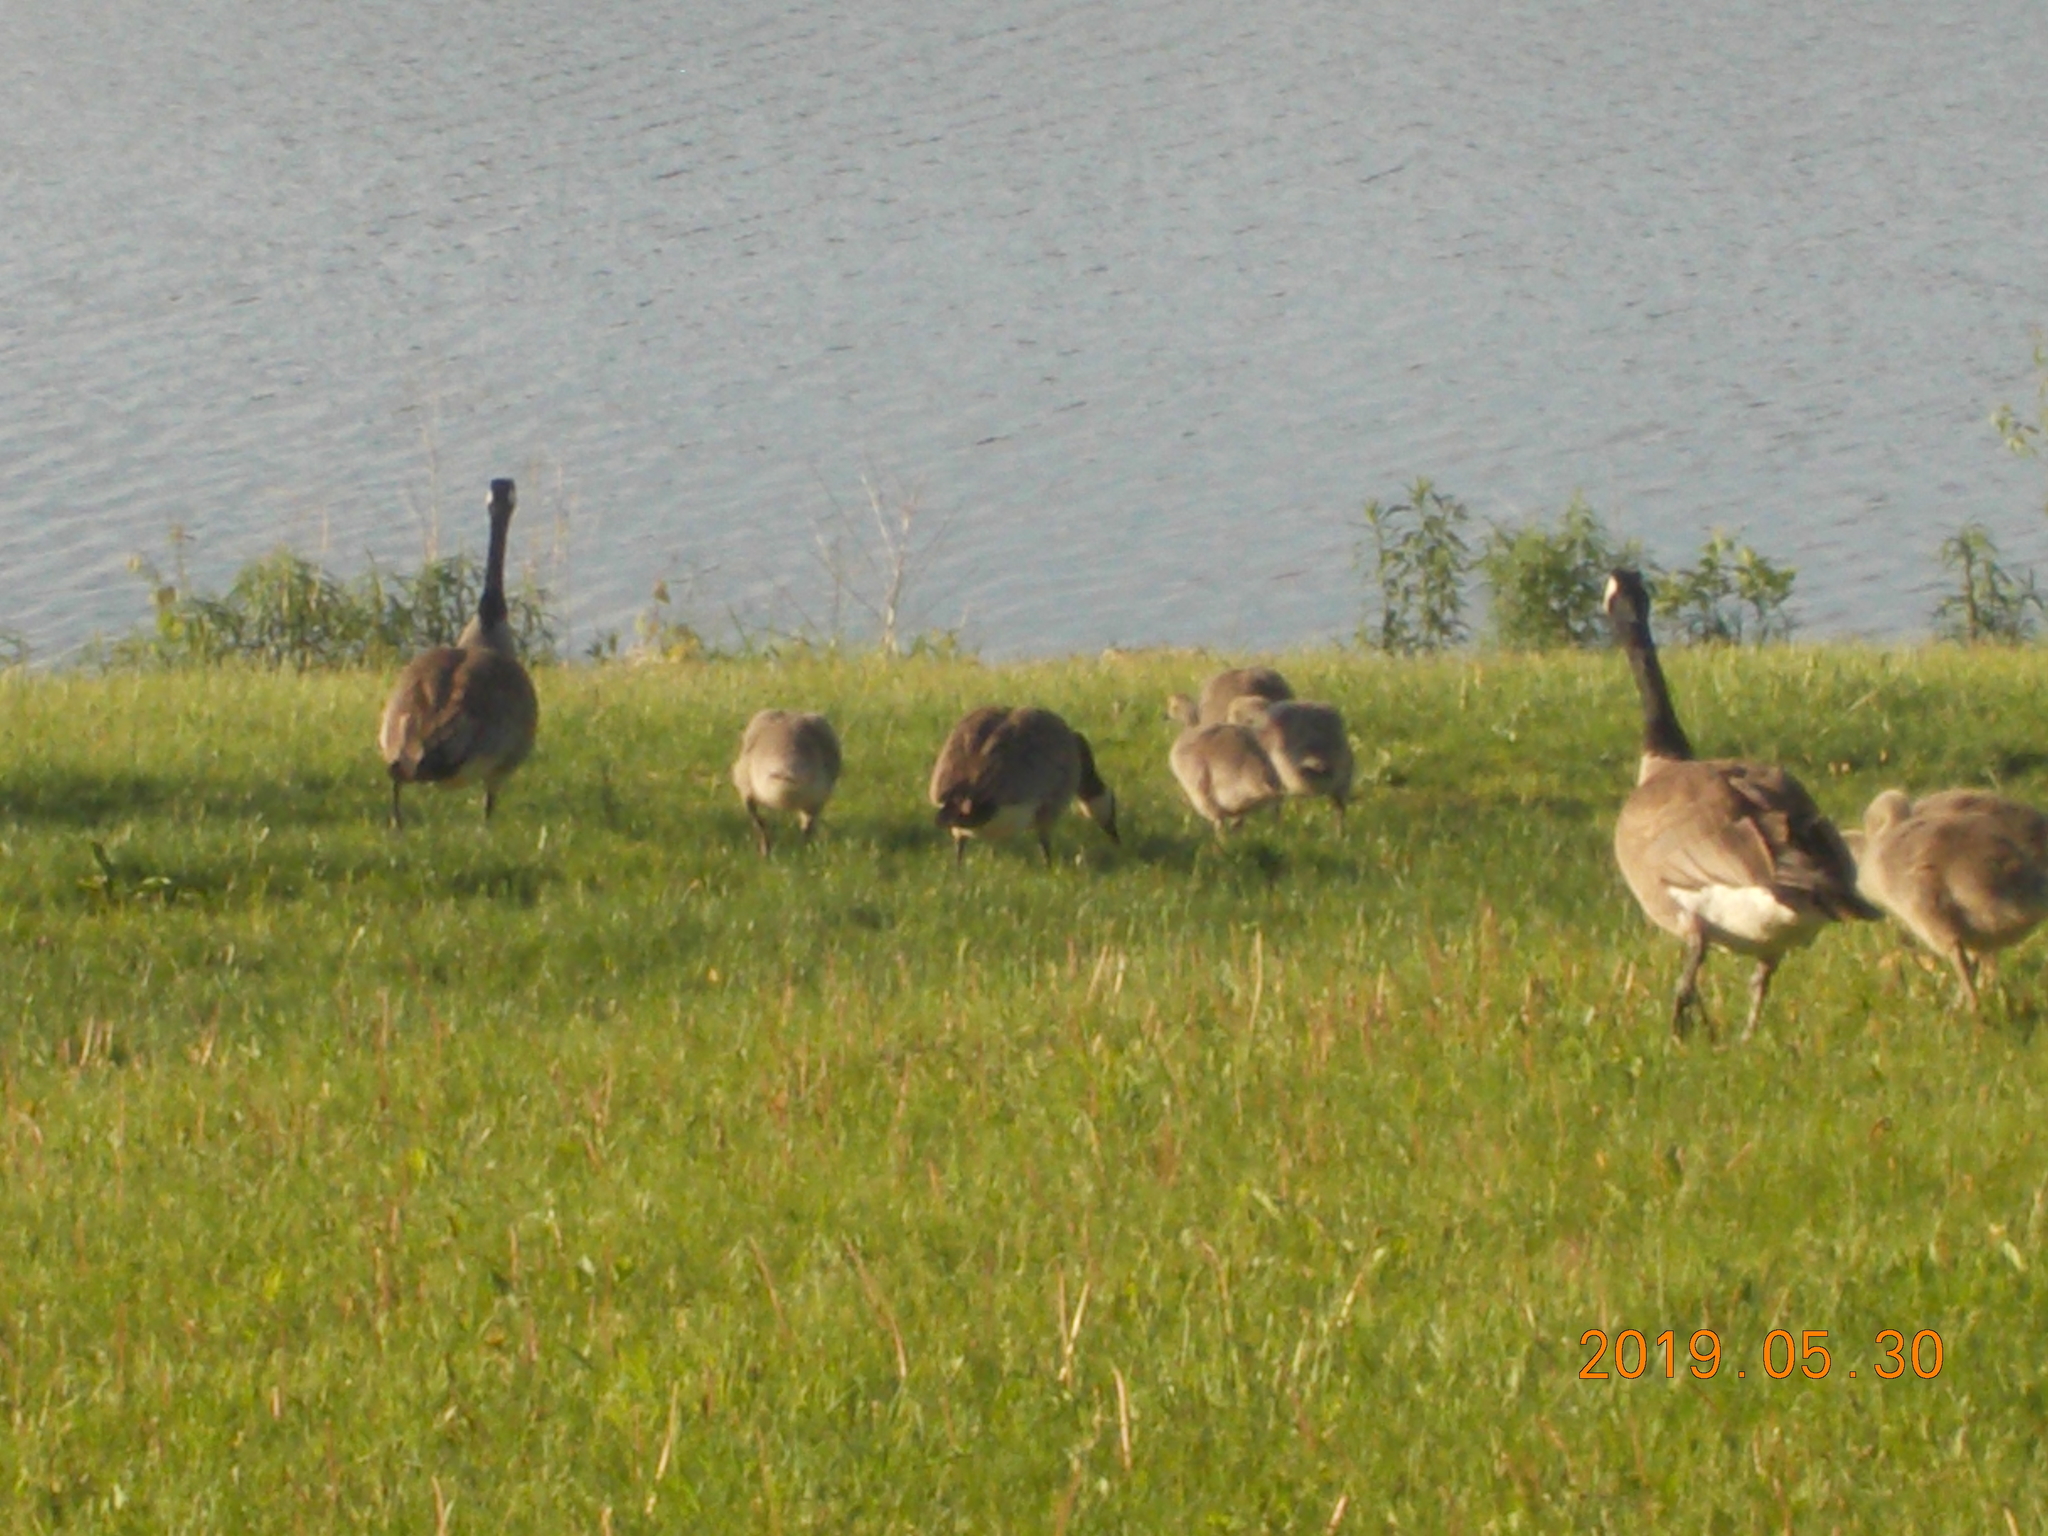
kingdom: Animalia
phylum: Chordata
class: Aves
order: Anseriformes
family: Anatidae
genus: Branta
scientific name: Branta canadensis
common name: Canada goose
